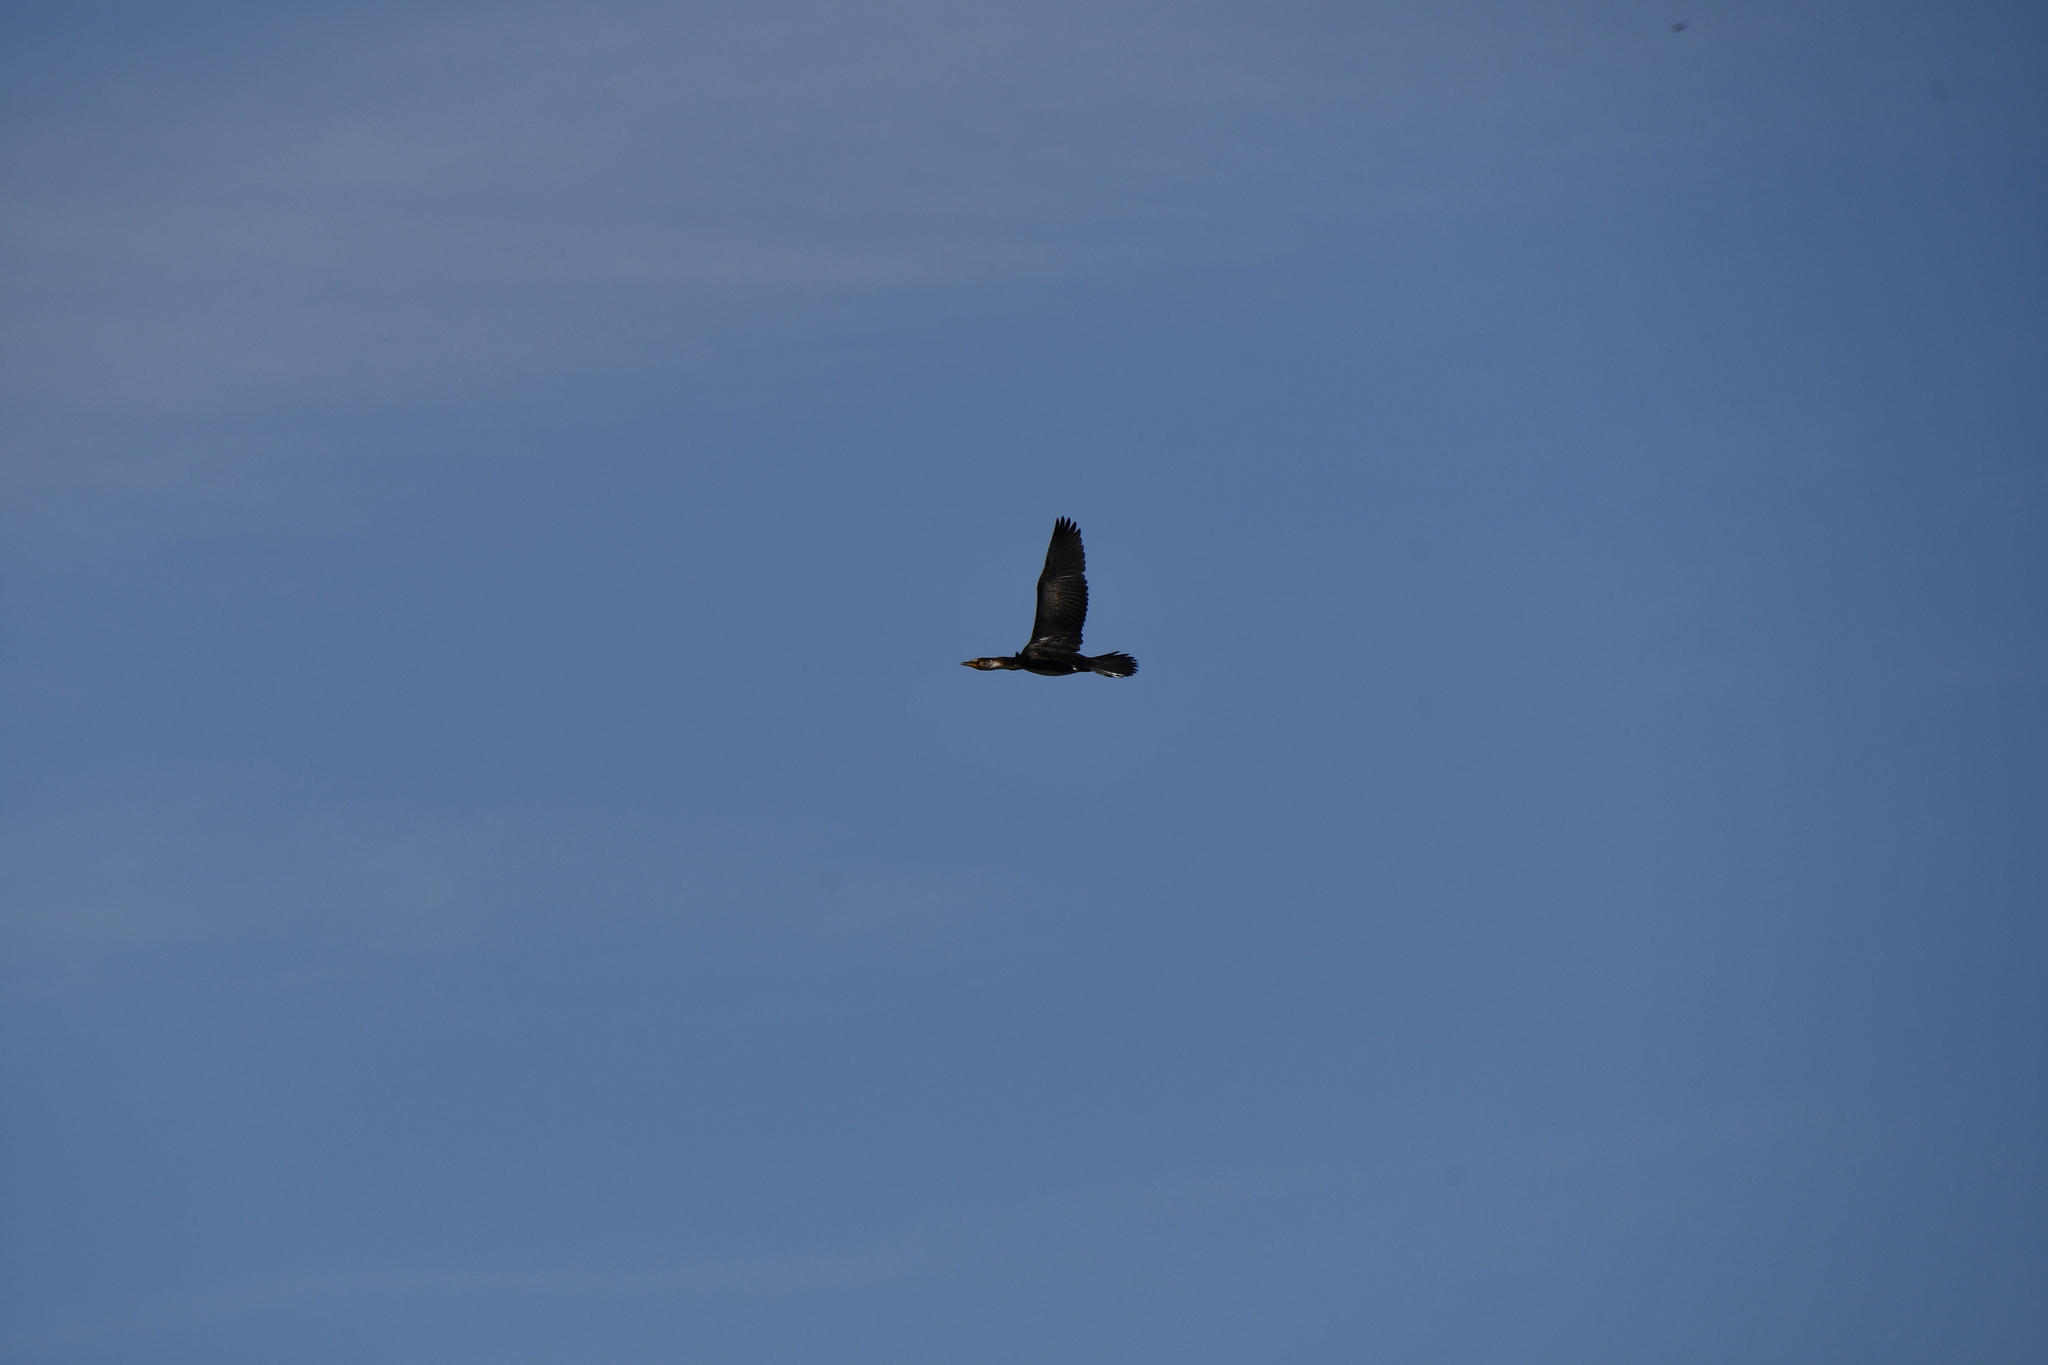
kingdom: Animalia
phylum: Chordata
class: Aves
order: Suliformes
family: Phalacrocoracidae
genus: Microcarbo
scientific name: Microcarbo melanoleucos
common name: Little pied cormorant
